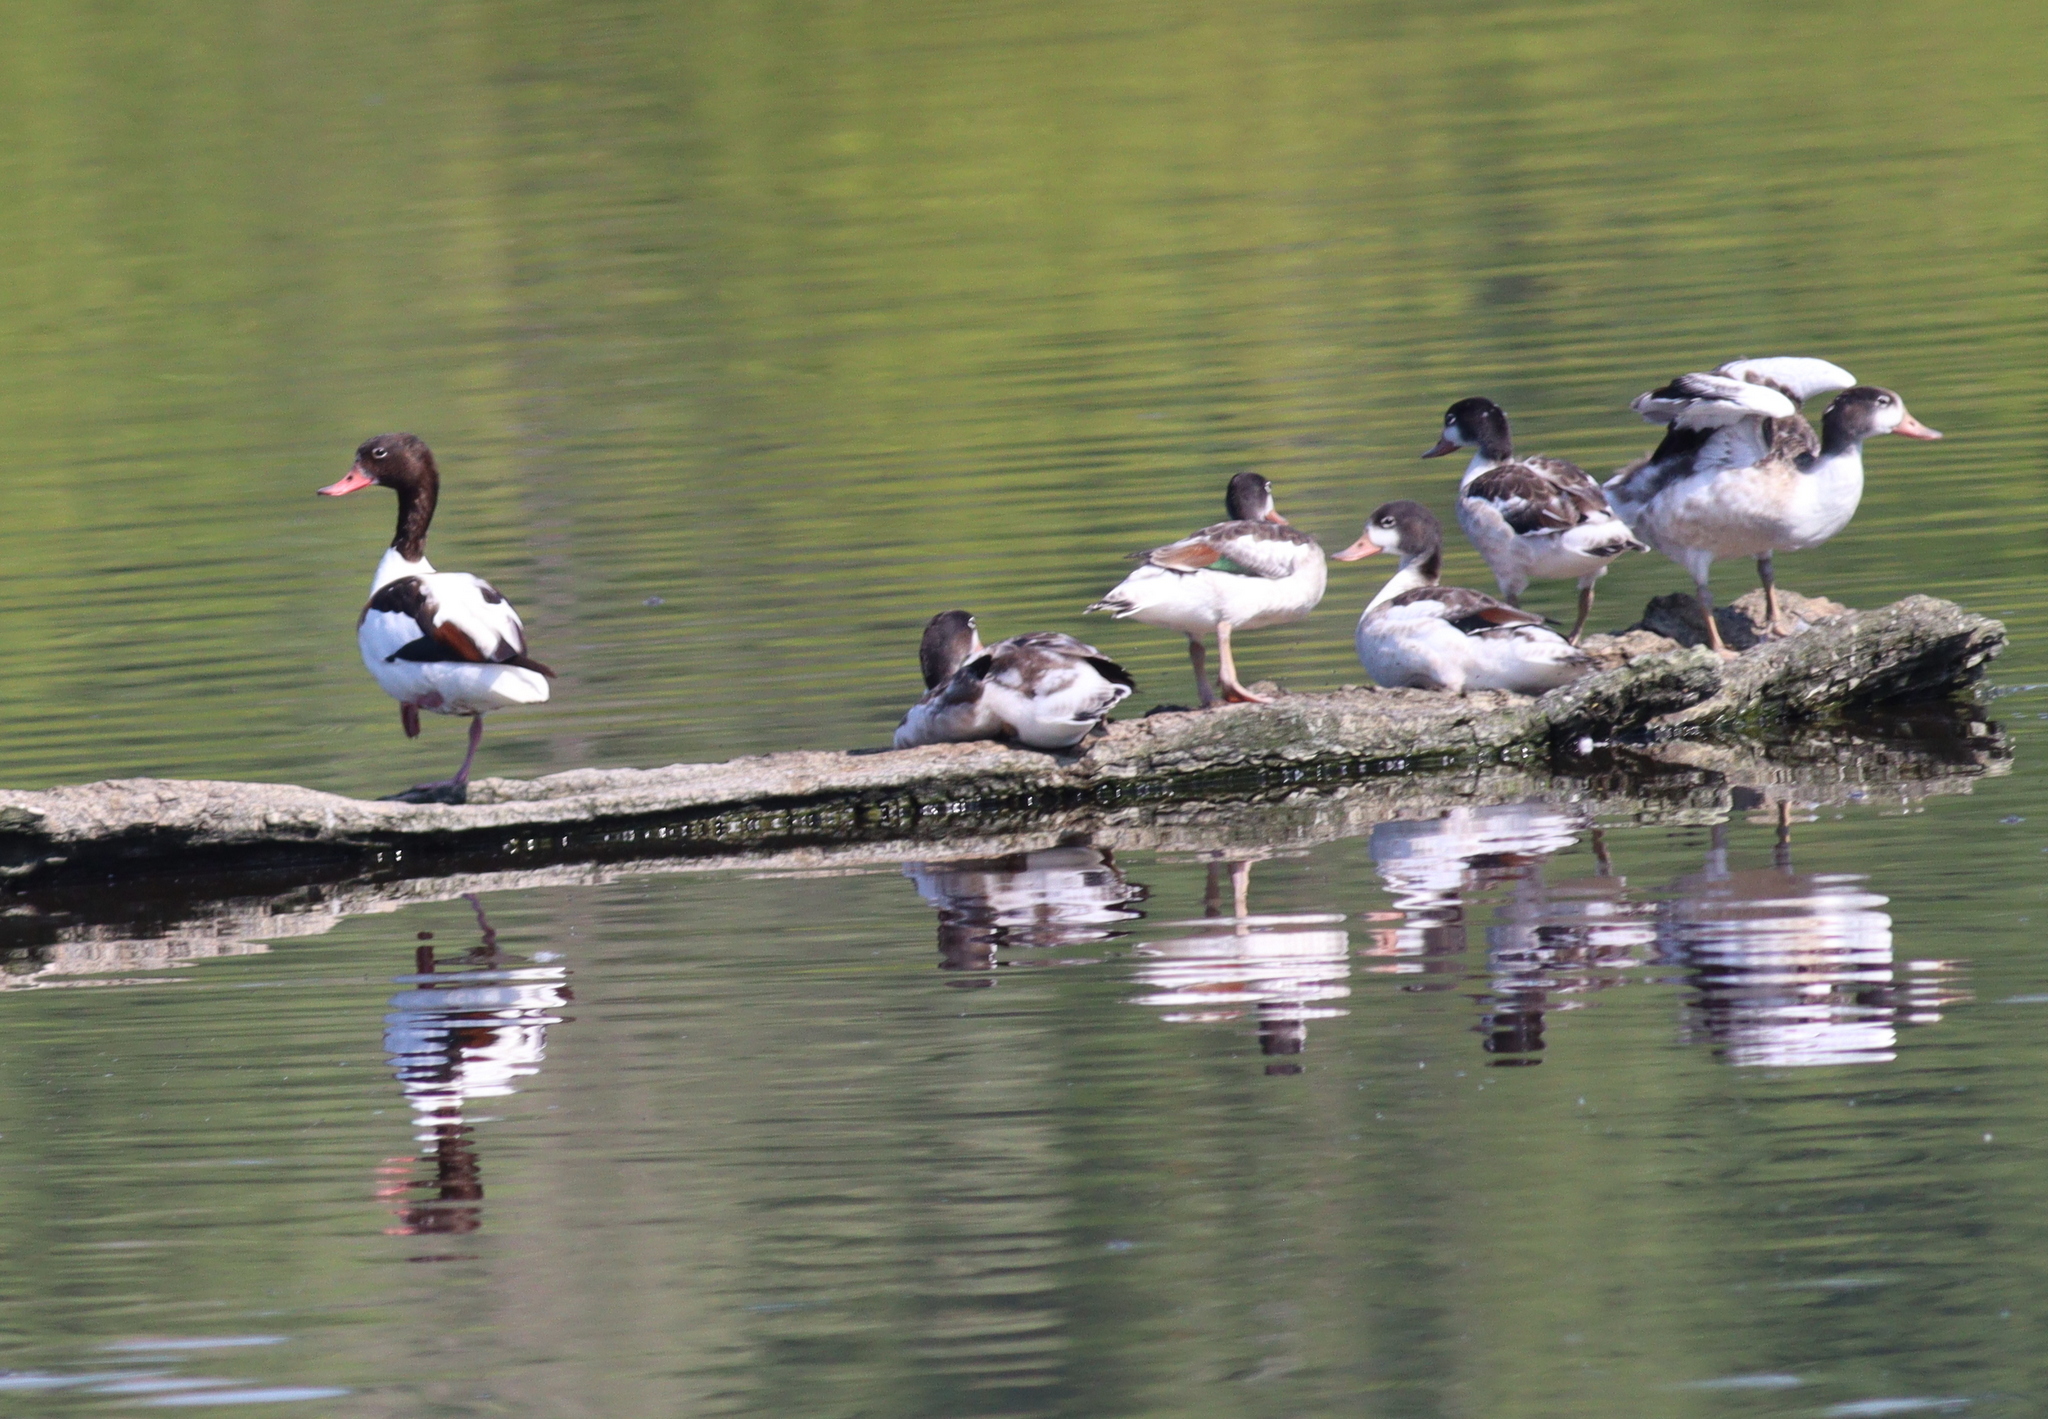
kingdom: Animalia
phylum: Chordata
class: Aves
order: Anseriformes
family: Anatidae
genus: Tadorna
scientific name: Tadorna tadorna
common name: Common shelduck
